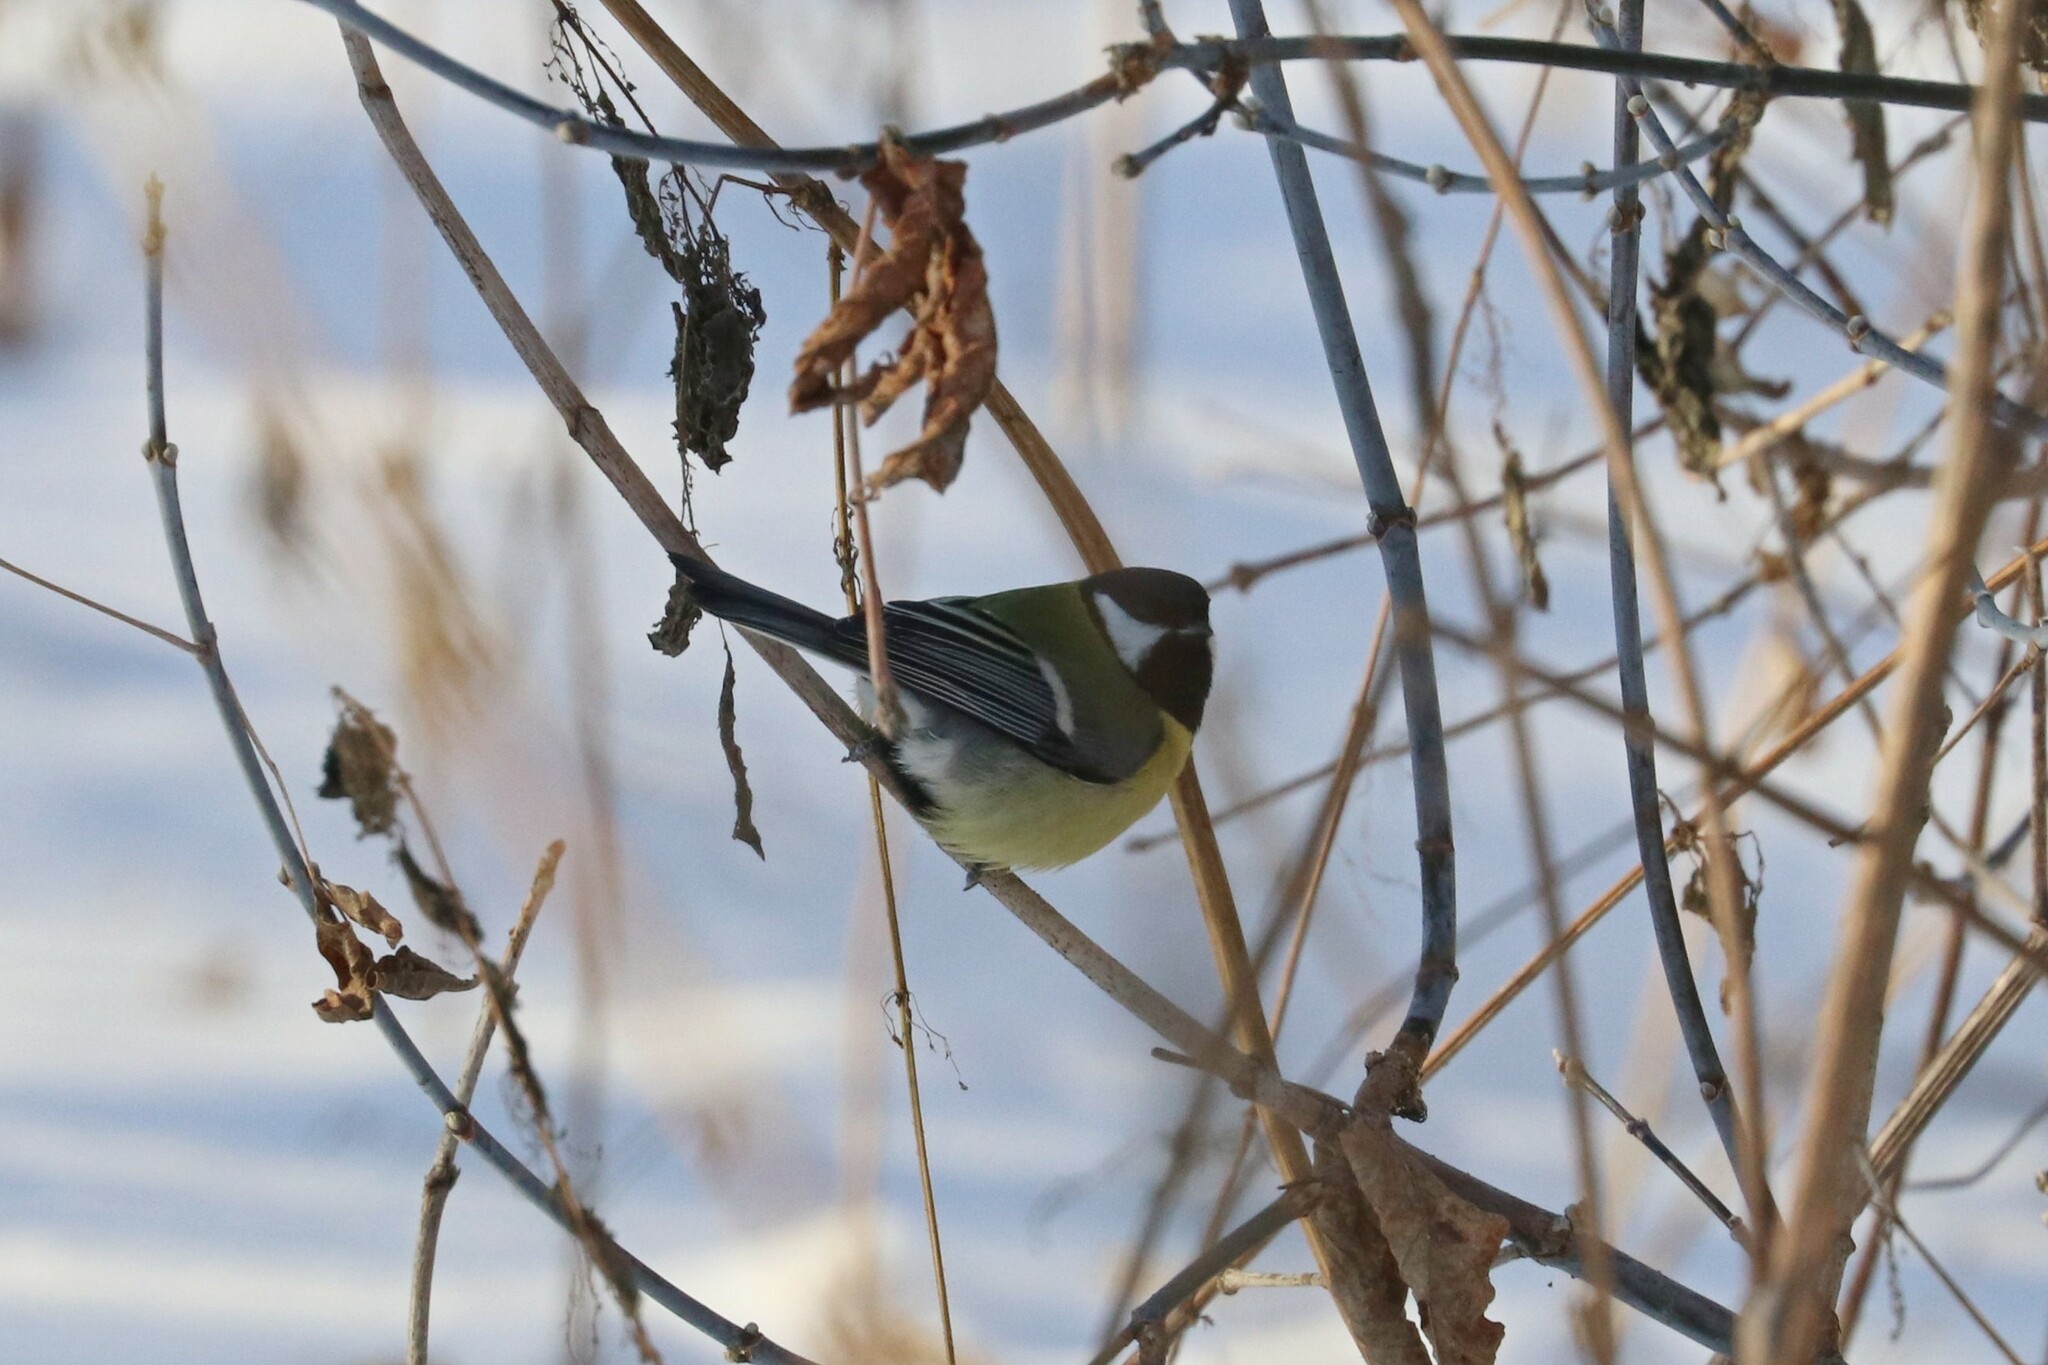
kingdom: Animalia
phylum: Chordata
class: Aves
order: Passeriformes
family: Paridae
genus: Parus
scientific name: Parus major
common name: Great tit
